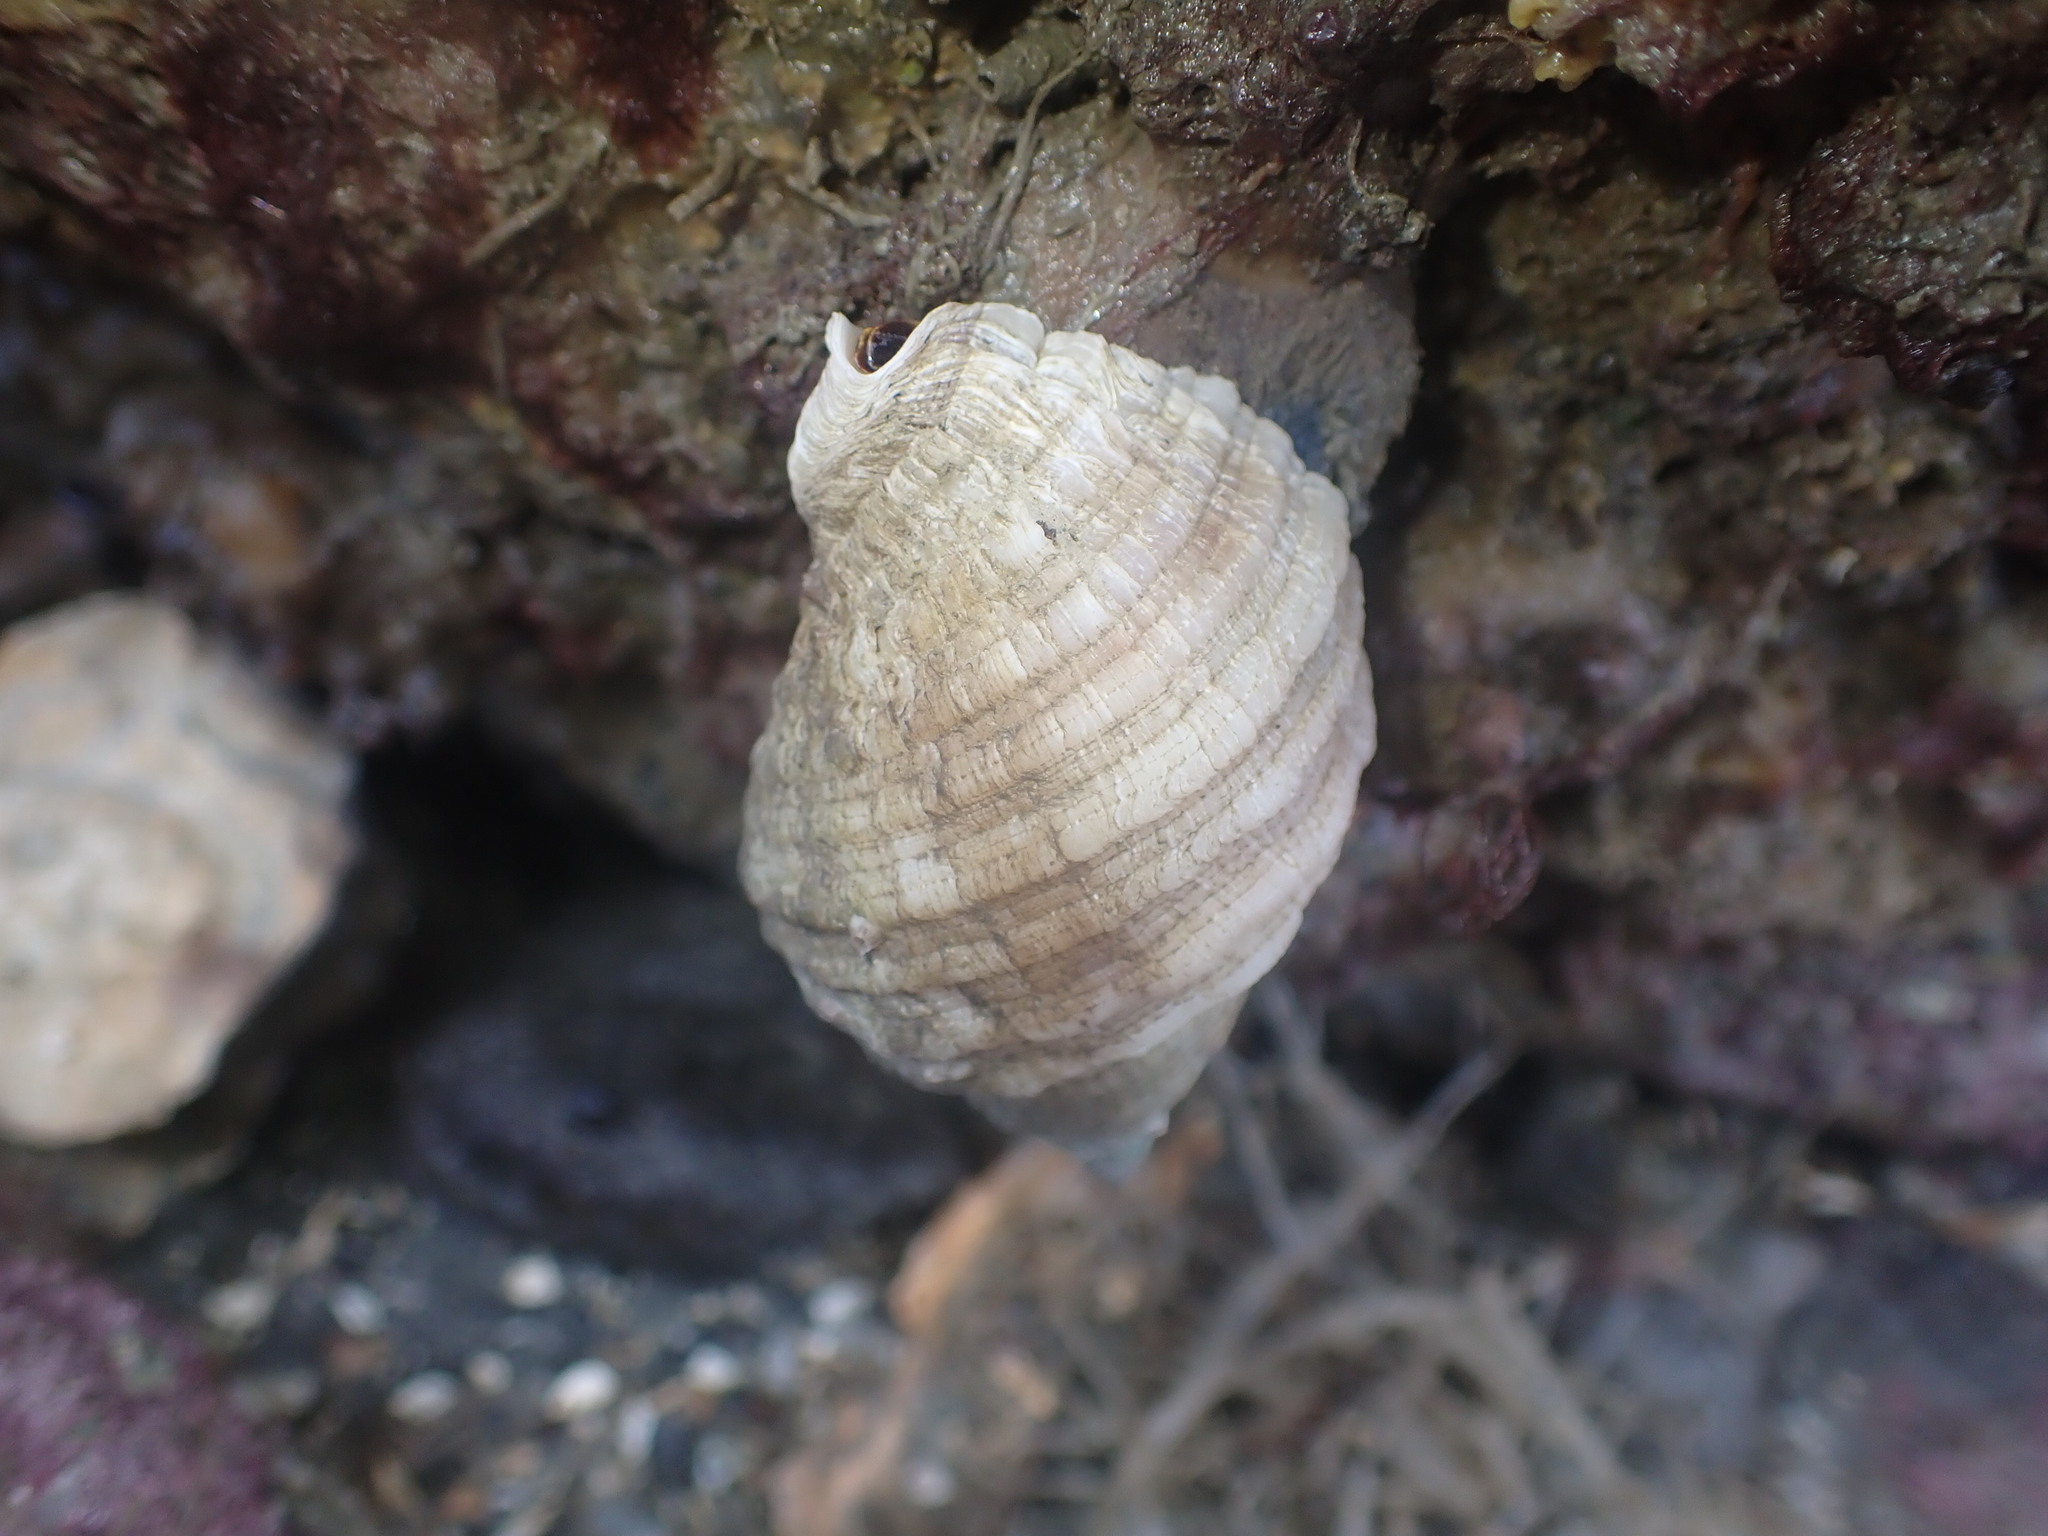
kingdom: Animalia
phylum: Mollusca
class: Gastropoda
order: Neogastropoda
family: Muricidae
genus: Dicathais
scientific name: Dicathais orbita
